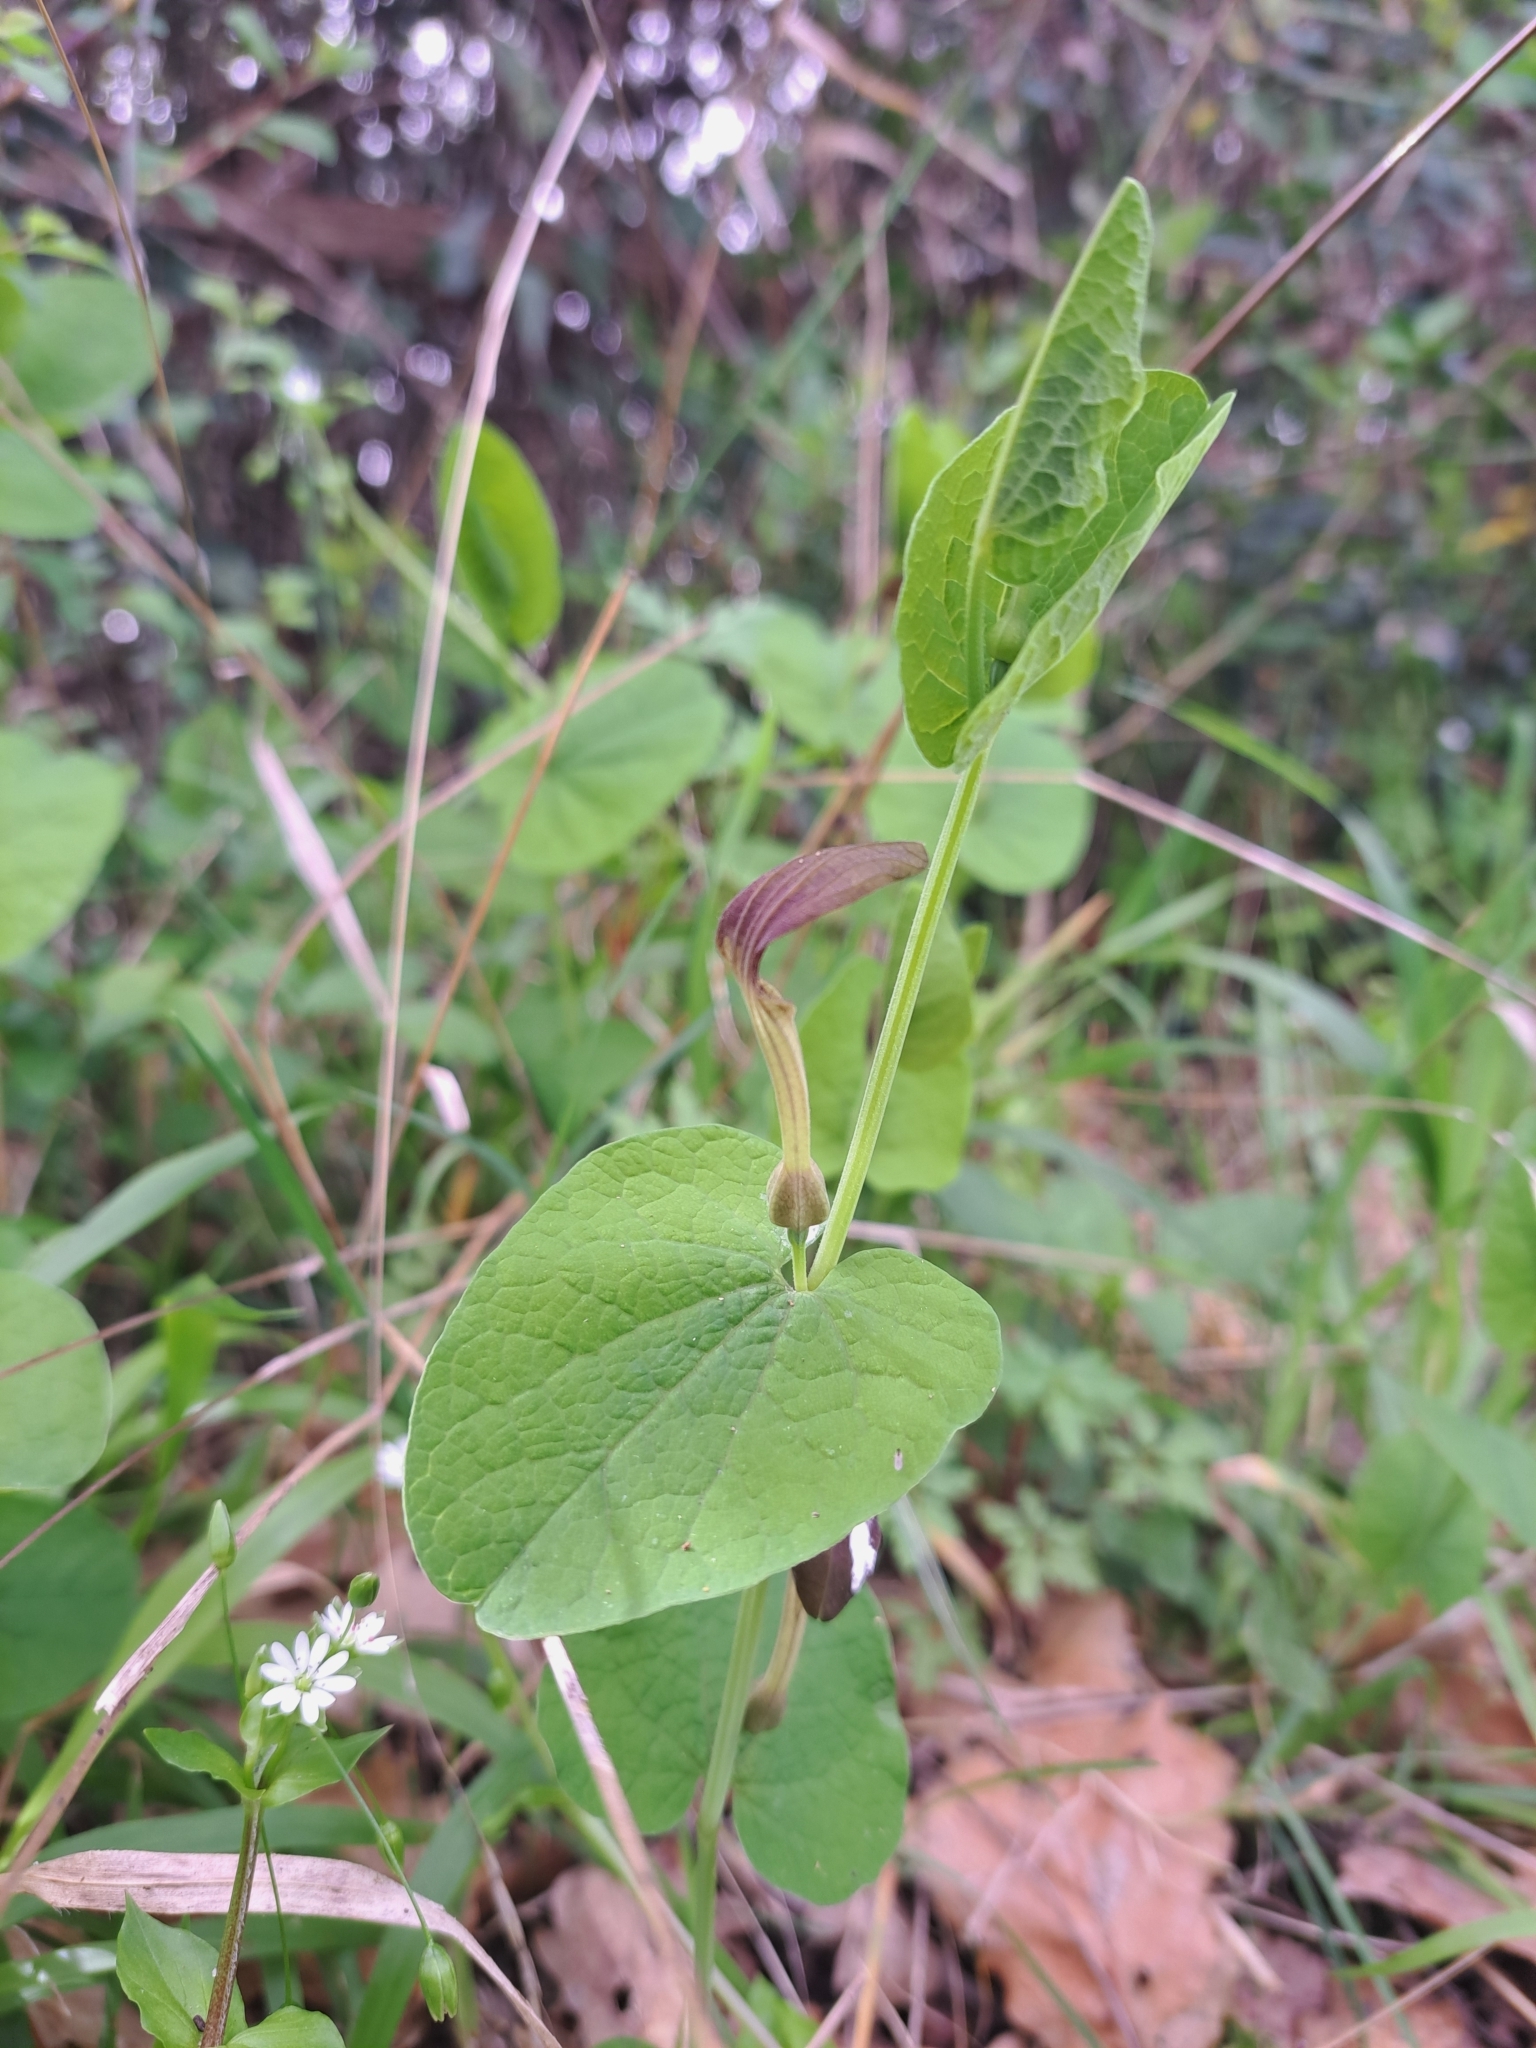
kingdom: Plantae
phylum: Tracheophyta
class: Magnoliopsida
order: Piperales
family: Aristolochiaceae
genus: Aristolochia
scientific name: Aristolochia rotunda
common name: Smearwort
